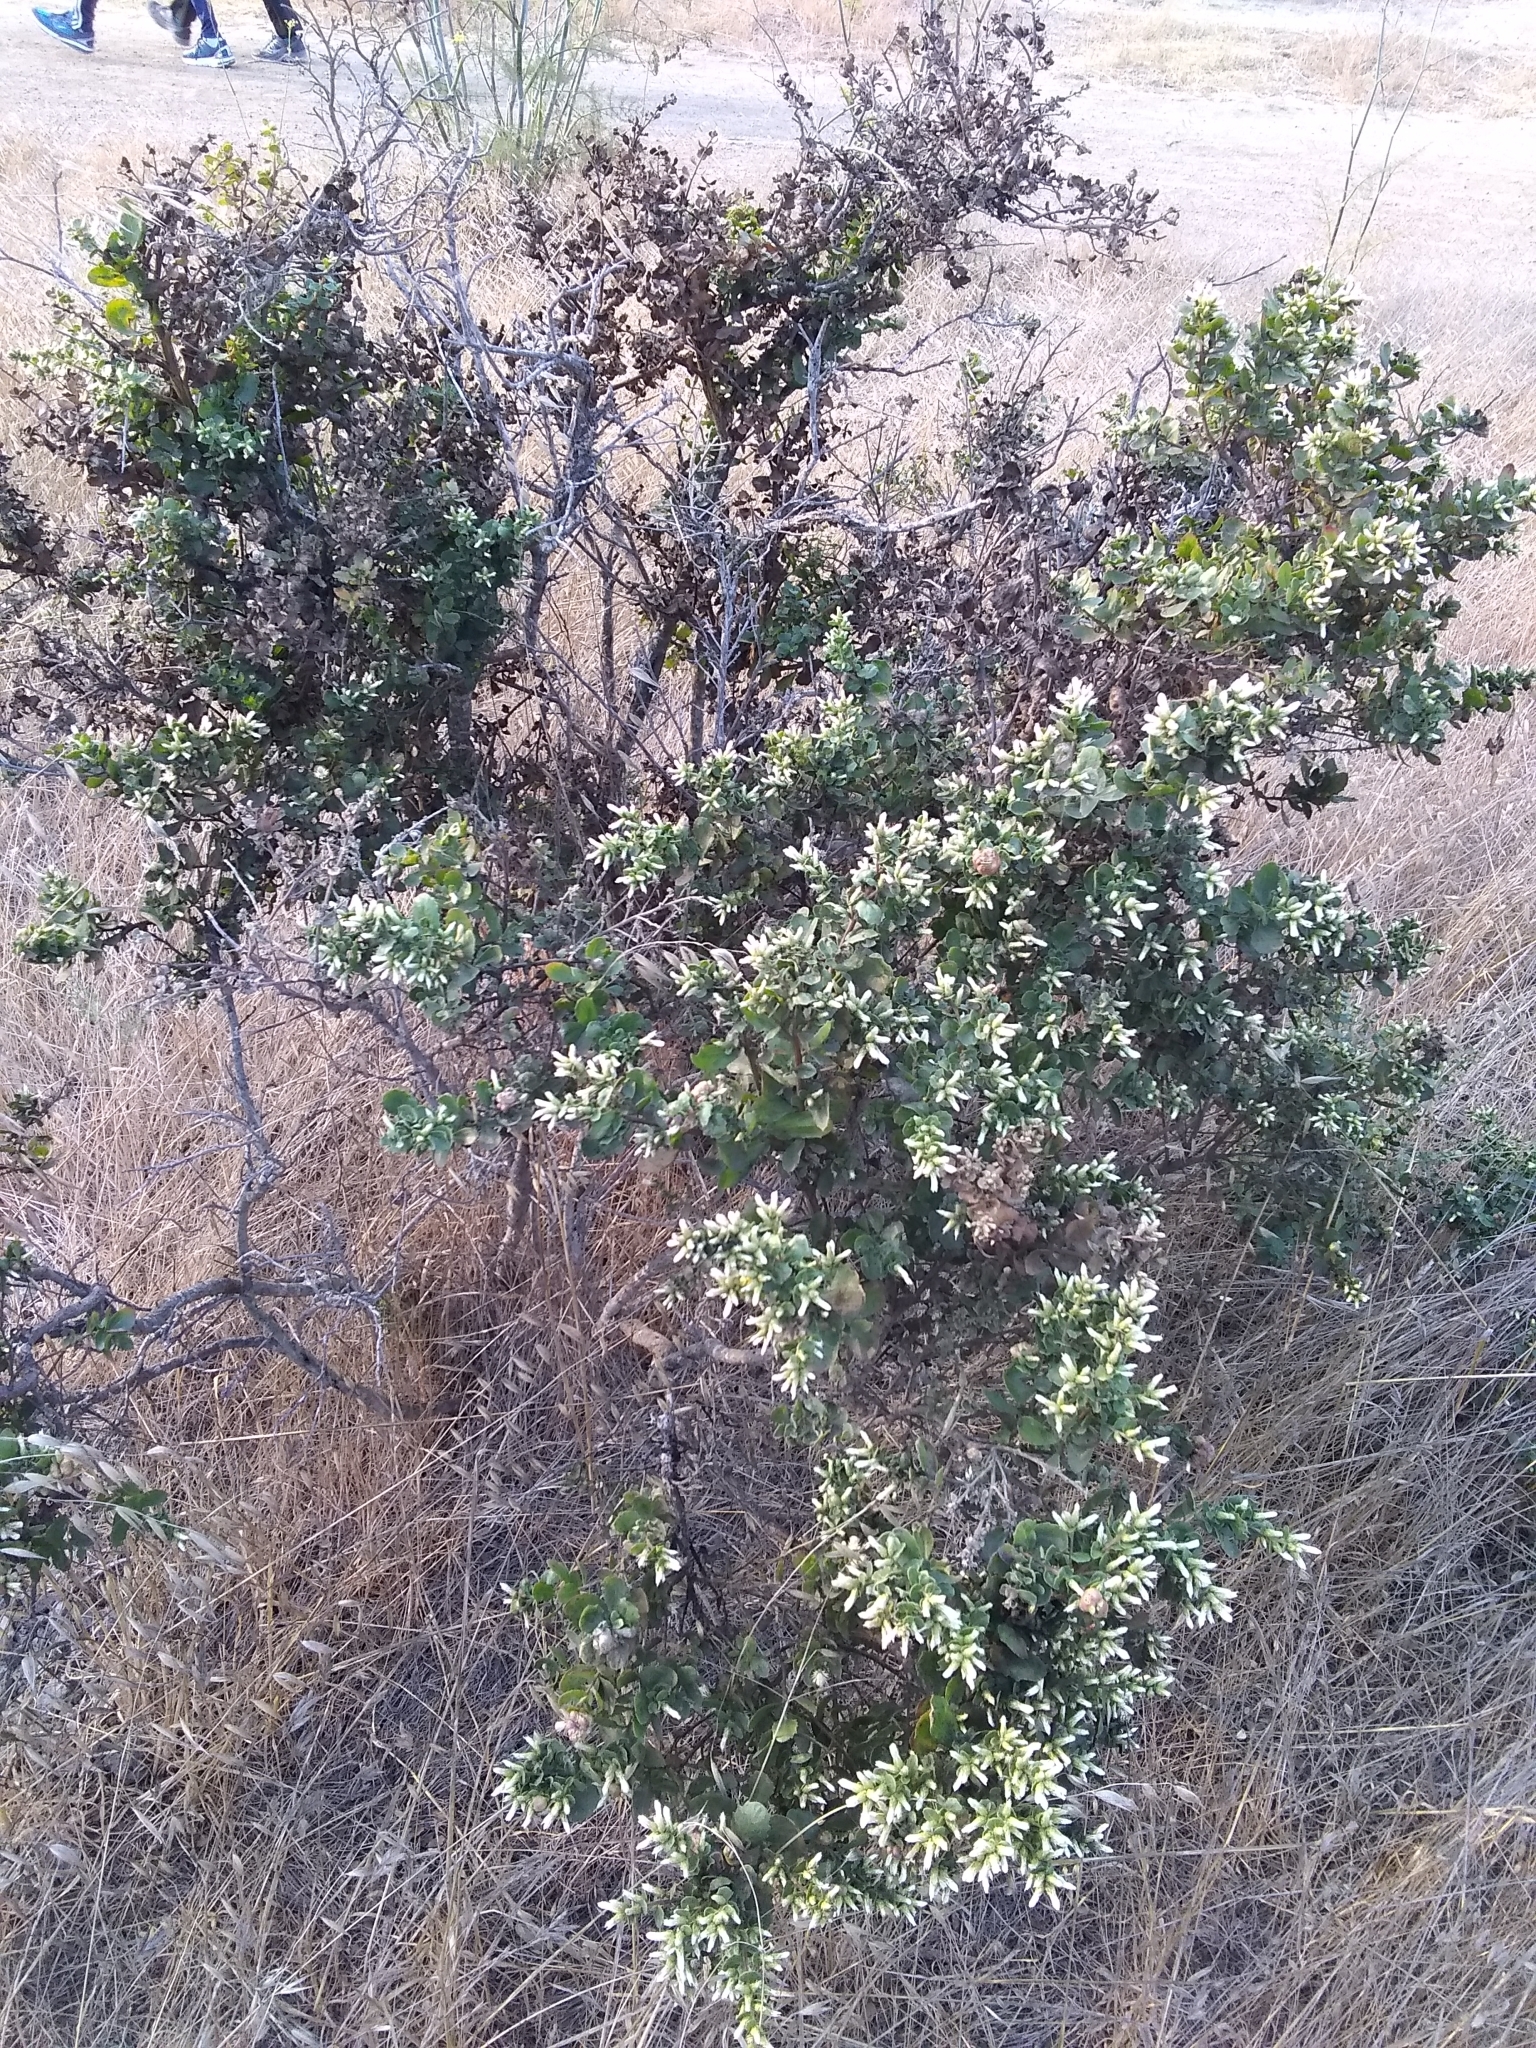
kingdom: Plantae
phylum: Tracheophyta
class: Magnoliopsida
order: Asterales
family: Asteraceae
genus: Baccharis
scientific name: Baccharis pilularis
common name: Coyotebrush
